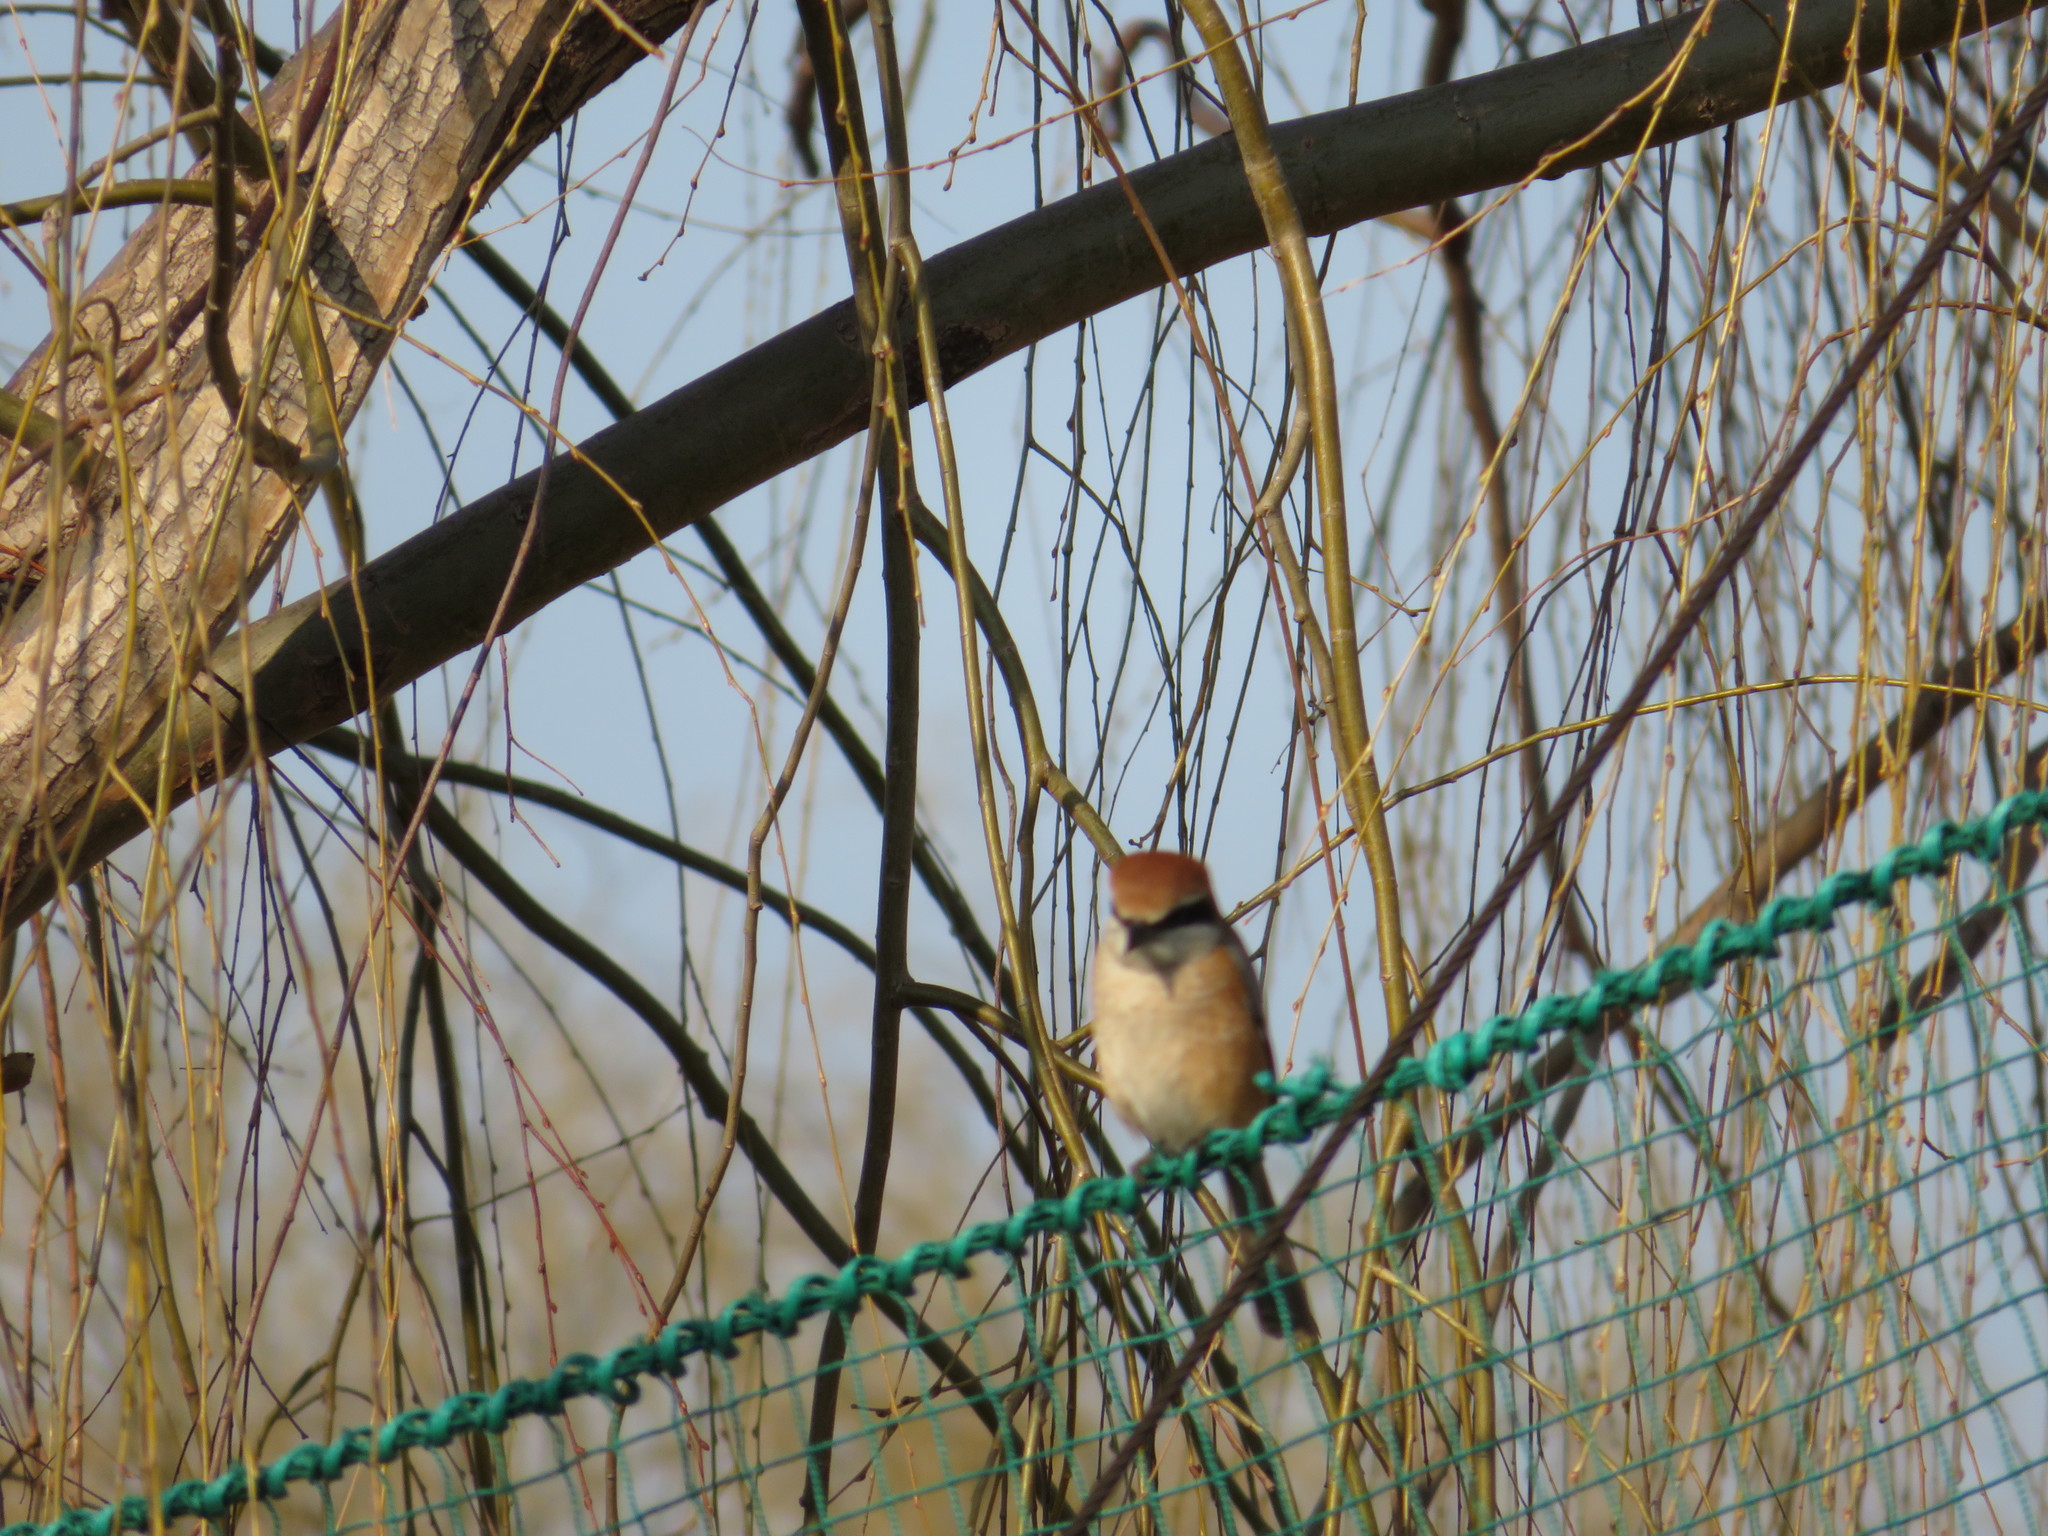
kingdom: Animalia
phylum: Chordata
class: Aves
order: Passeriformes
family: Laniidae
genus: Lanius
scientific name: Lanius bucephalus
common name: Bull-headed shrike
